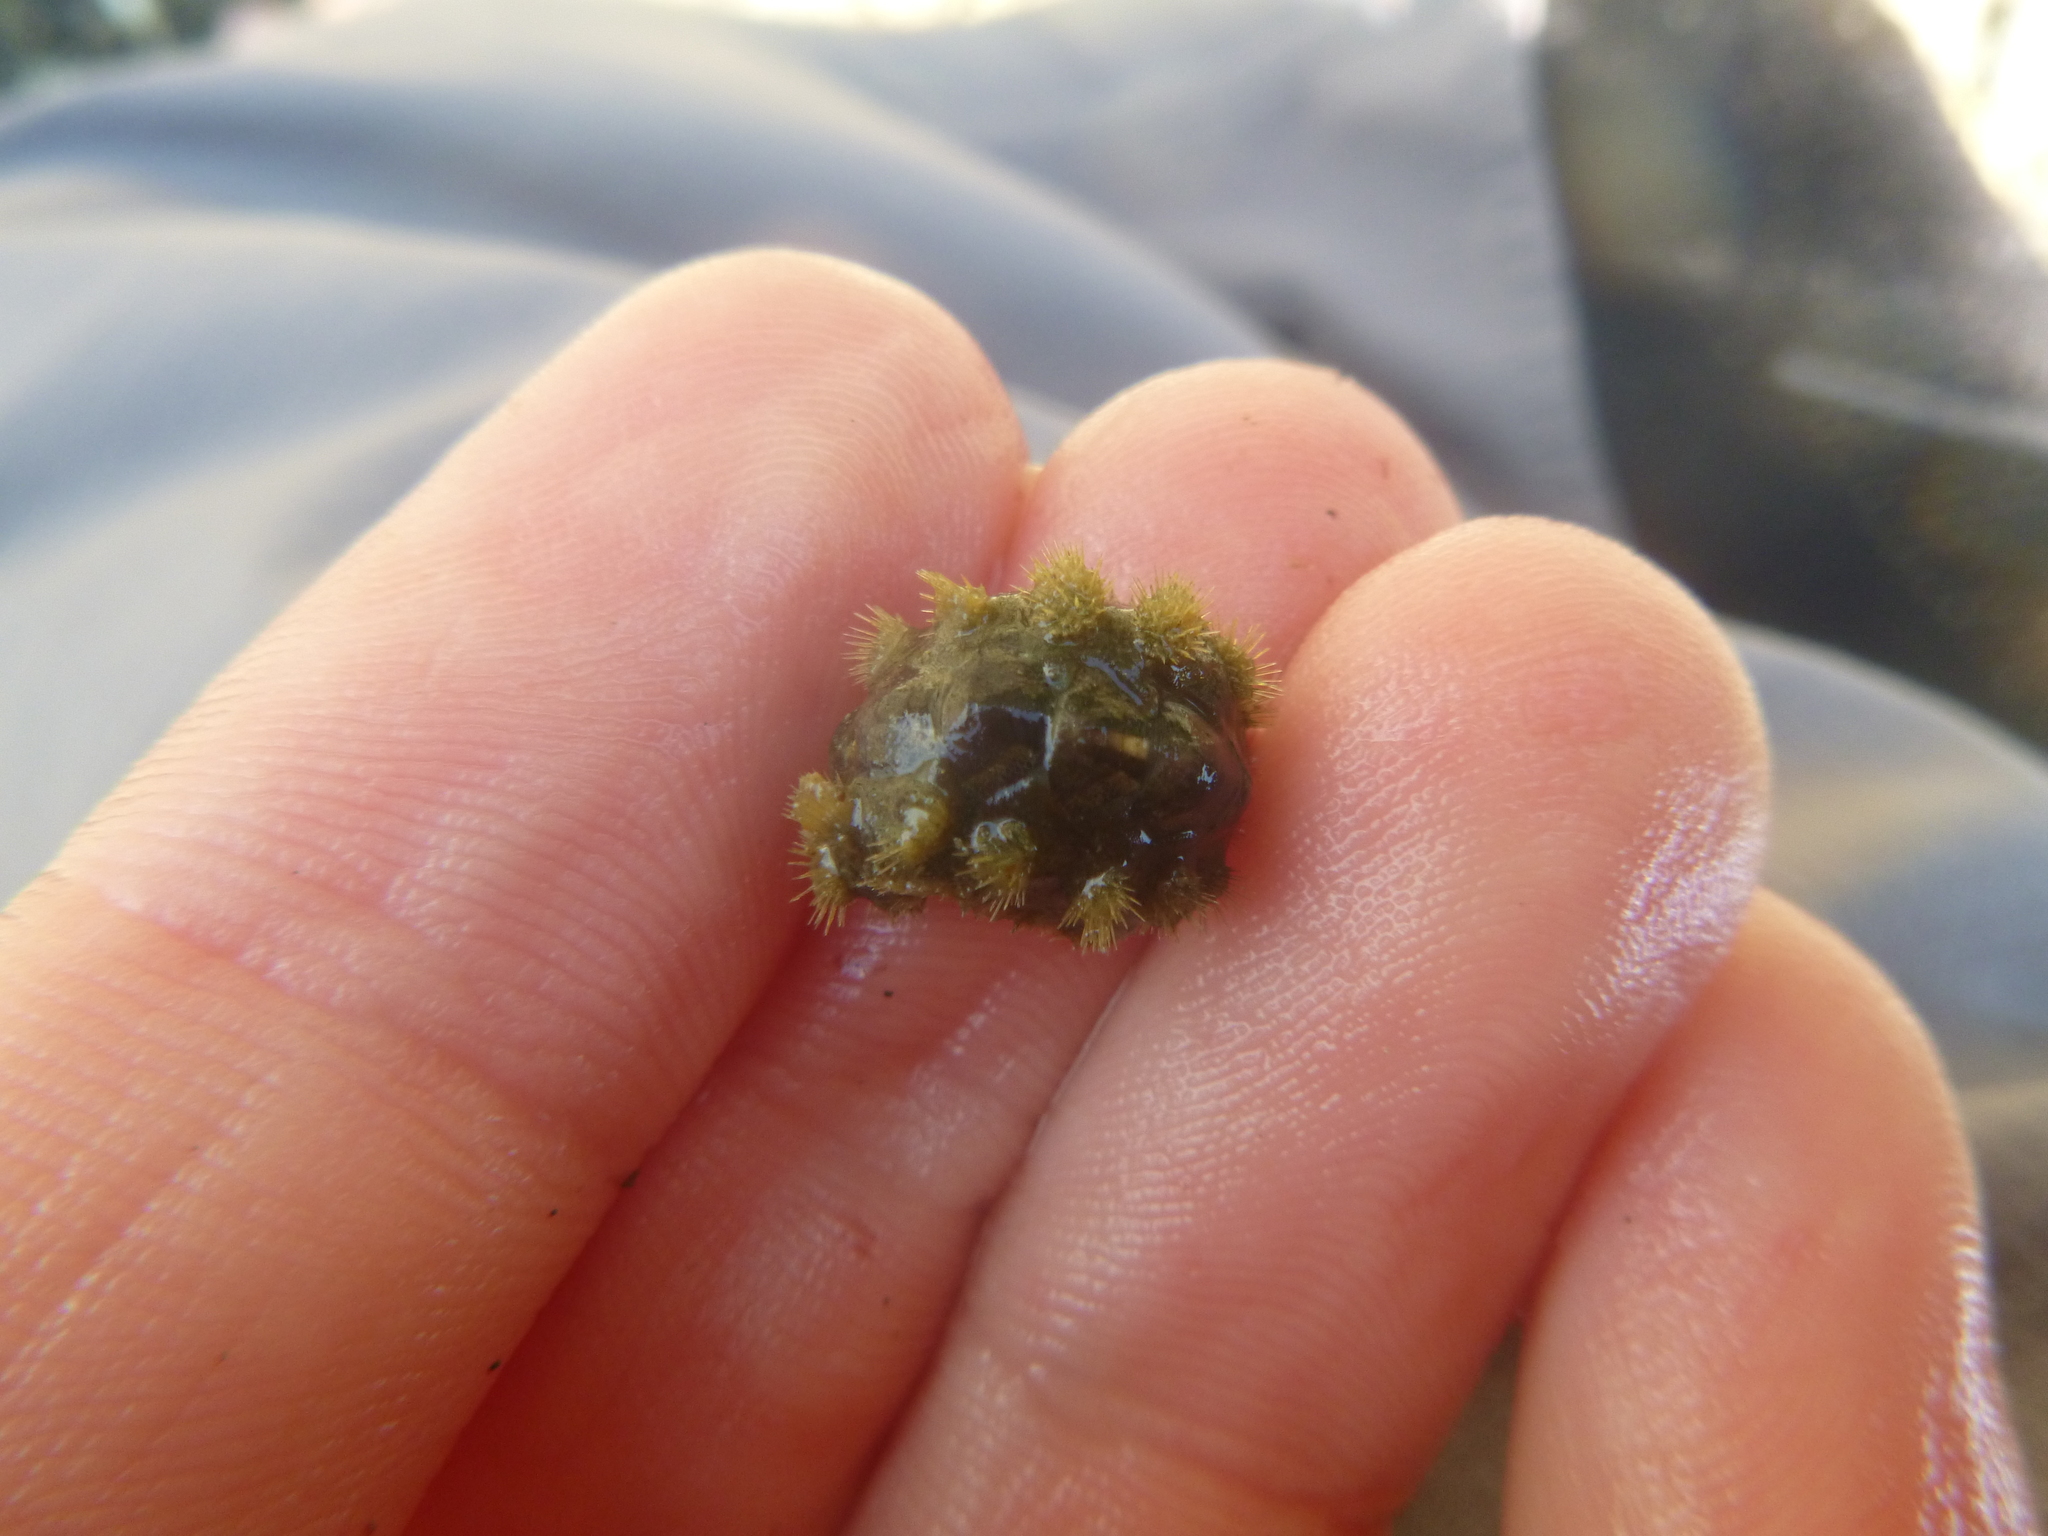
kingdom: Animalia
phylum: Mollusca
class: Polyplacophora
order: Chitonida
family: Acanthochitonidae
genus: Acanthochitona
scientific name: Acanthochitona zelandica
